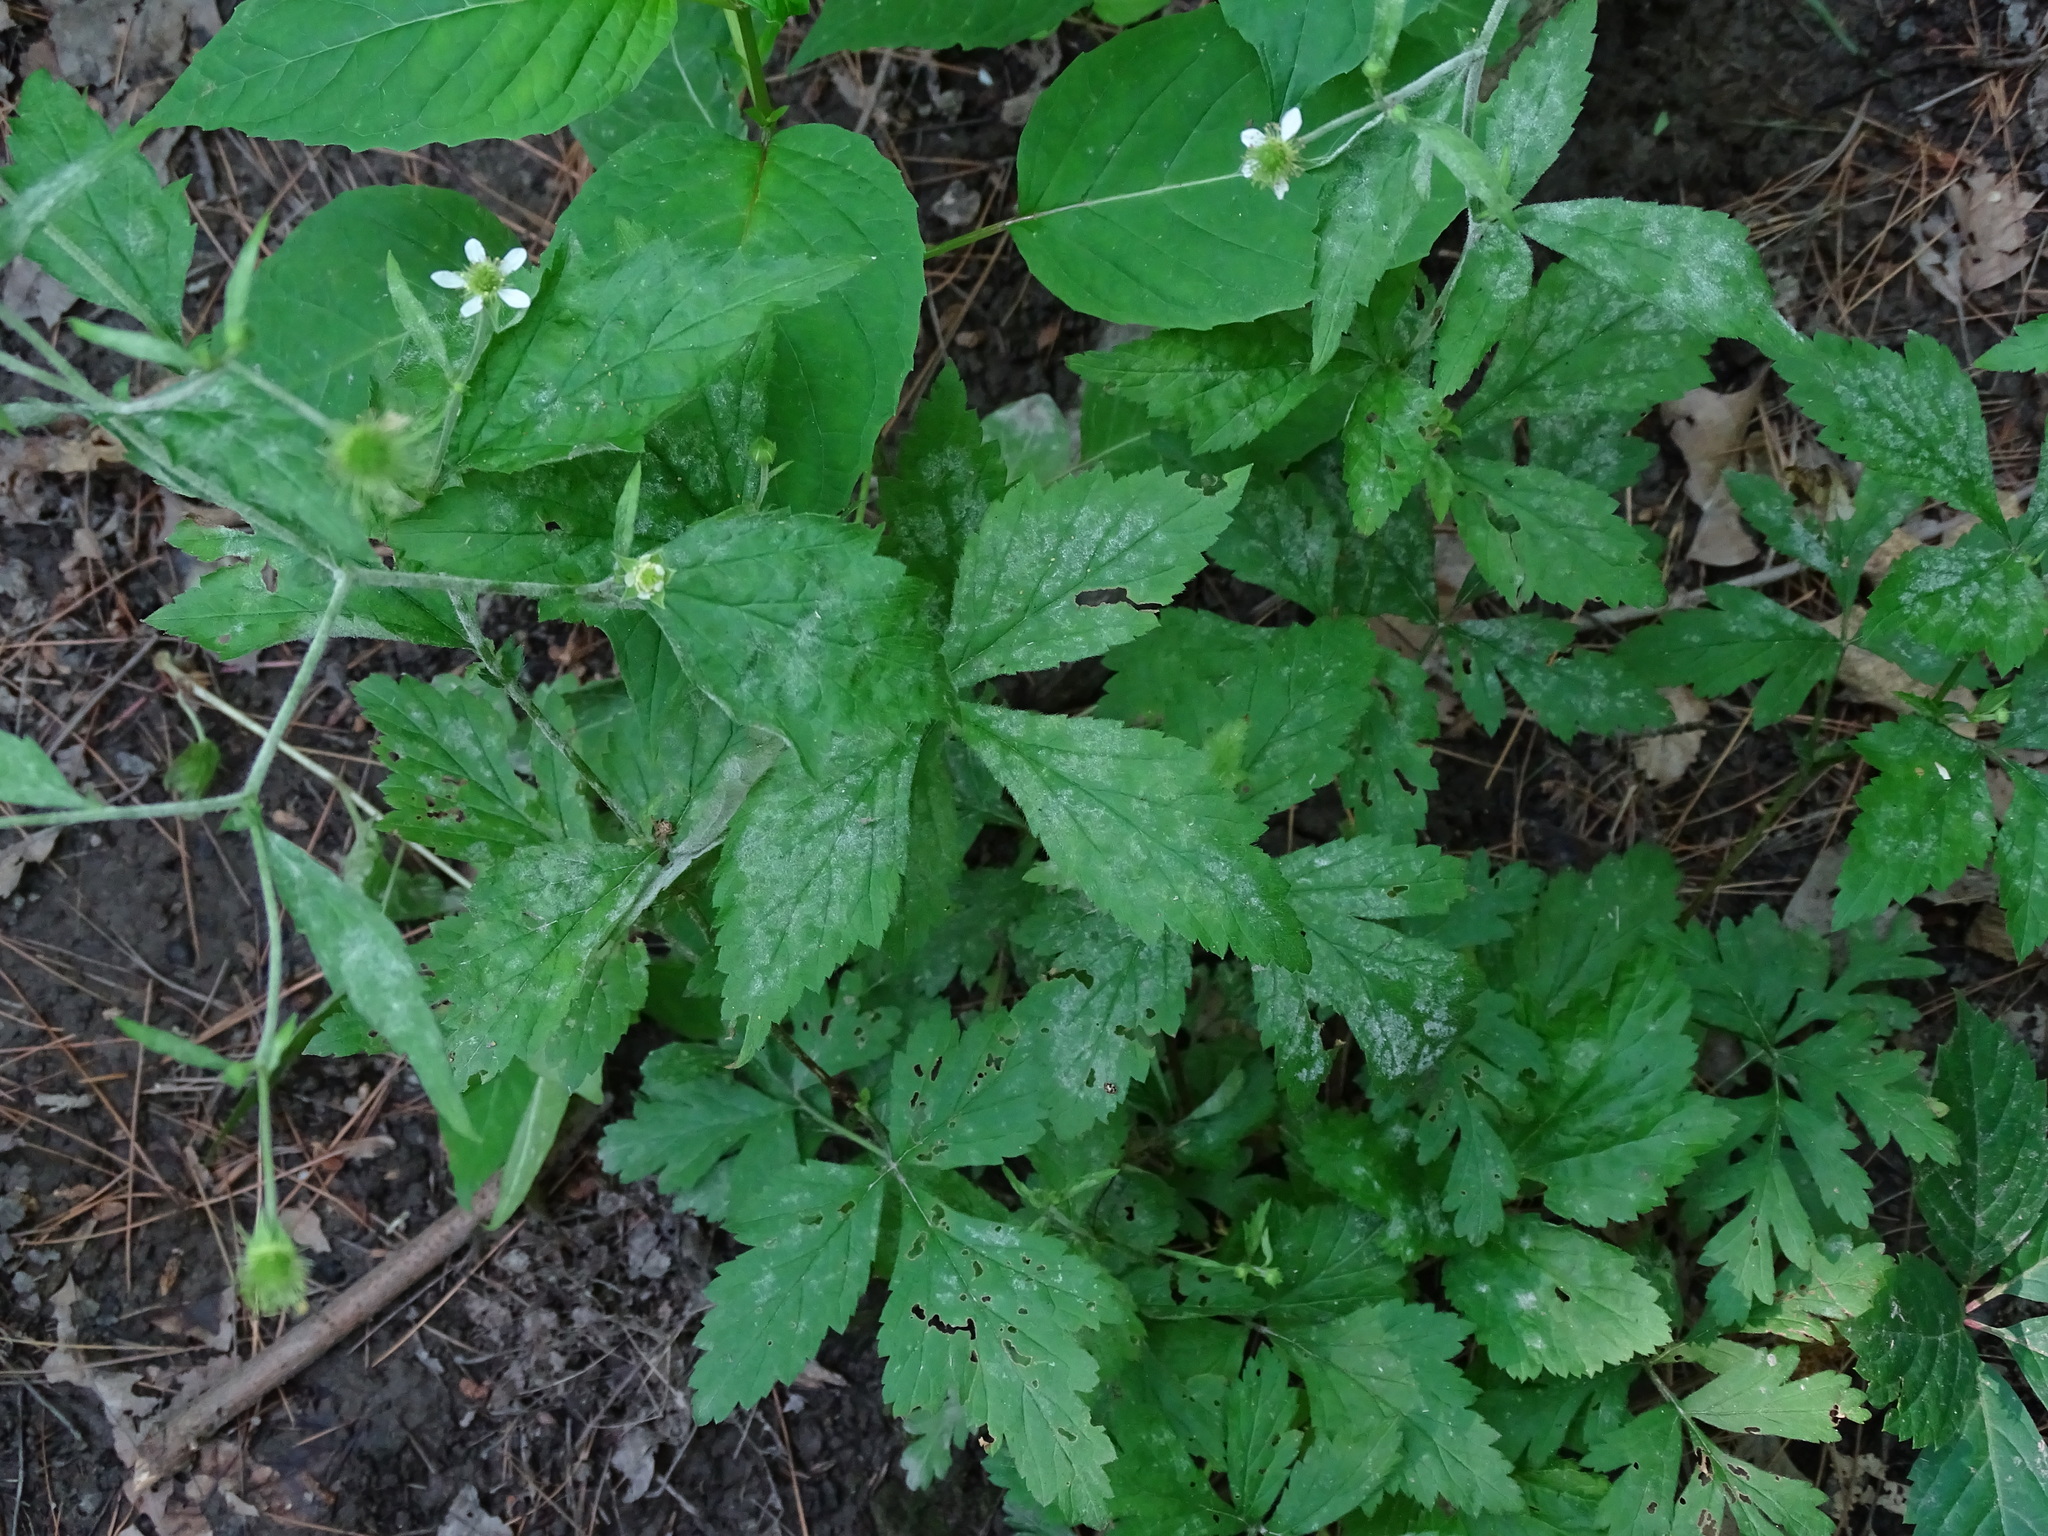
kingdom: Plantae
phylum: Tracheophyta
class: Magnoliopsida
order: Rosales
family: Rosaceae
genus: Geum
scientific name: Geum canadense
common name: White avens
